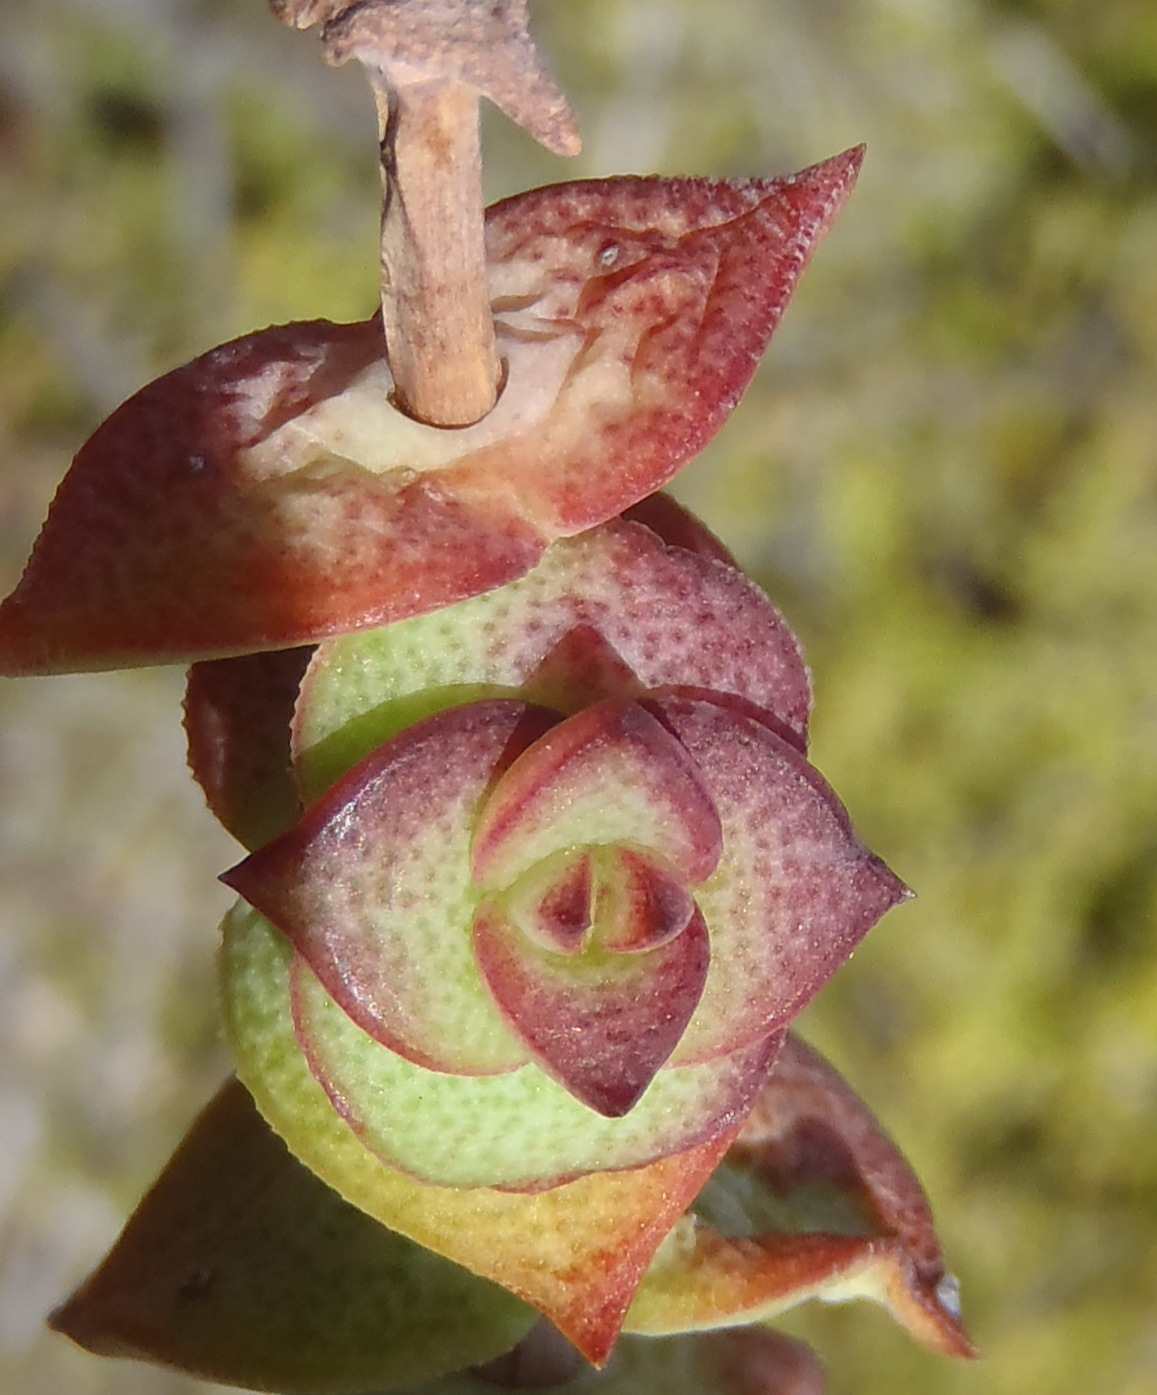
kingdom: Plantae
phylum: Tracheophyta
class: Magnoliopsida
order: Saxifragales
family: Crassulaceae
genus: Crassula
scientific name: Crassula perforata
